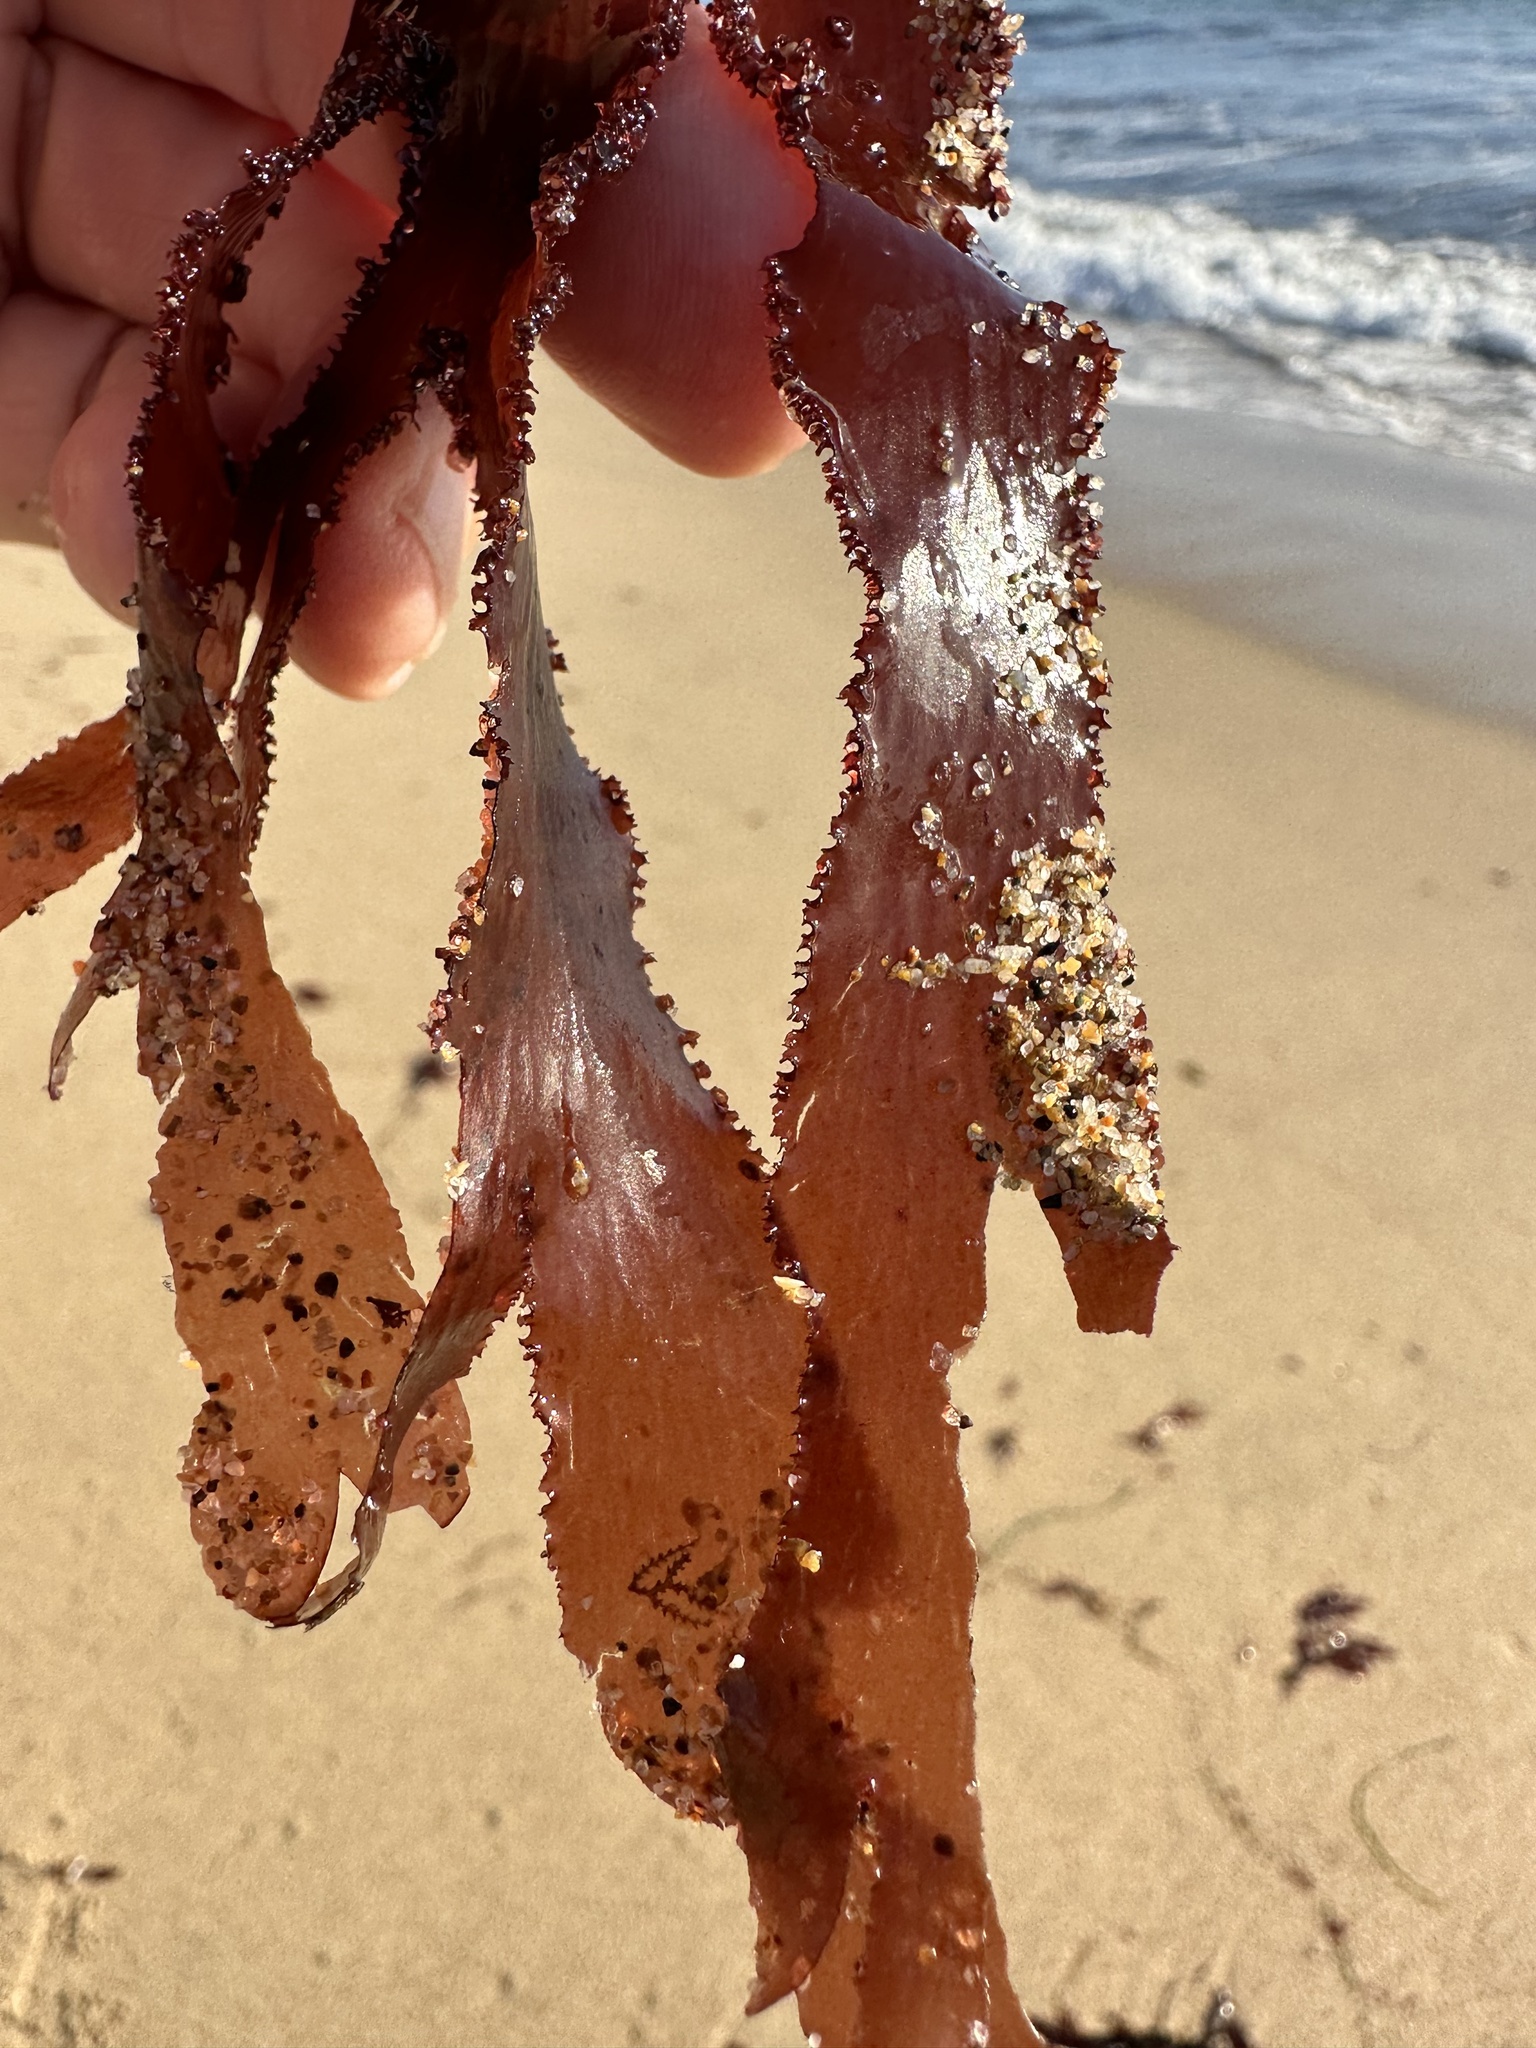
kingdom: Plantae
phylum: Rhodophyta
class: Florideophyceae
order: Ceramiales
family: Delesseriaceae
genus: Cryptopleura
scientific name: Cryptopleura ruprechtiana
